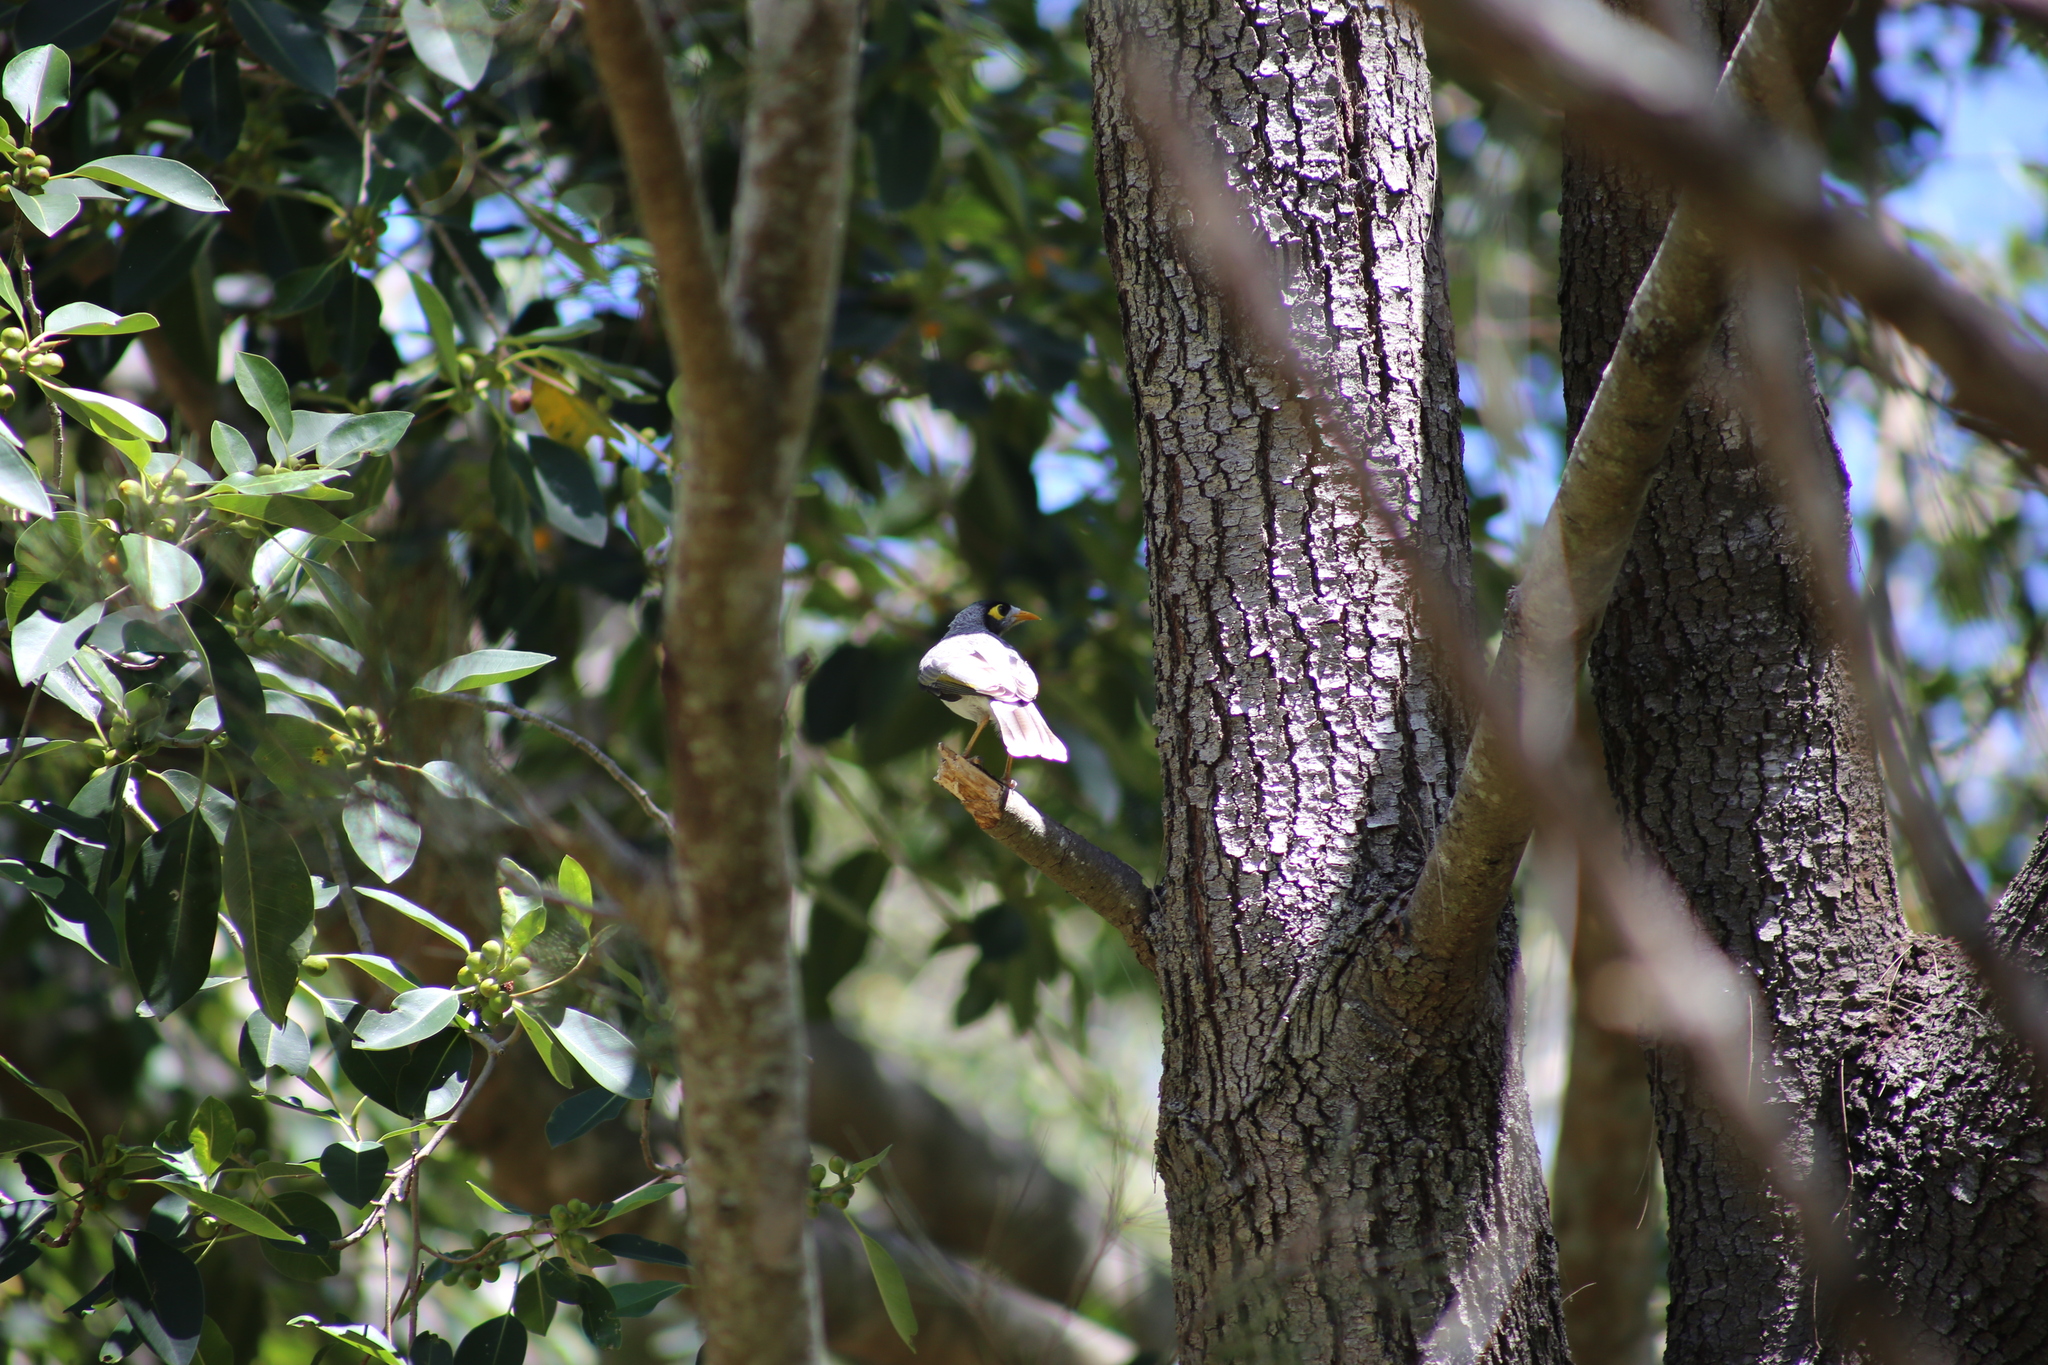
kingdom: Animalia
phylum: Chordata
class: Aves
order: Passeriformes
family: Meliphagidae
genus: Manorina
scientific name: Manorina melanocephala
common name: Noisy miner
